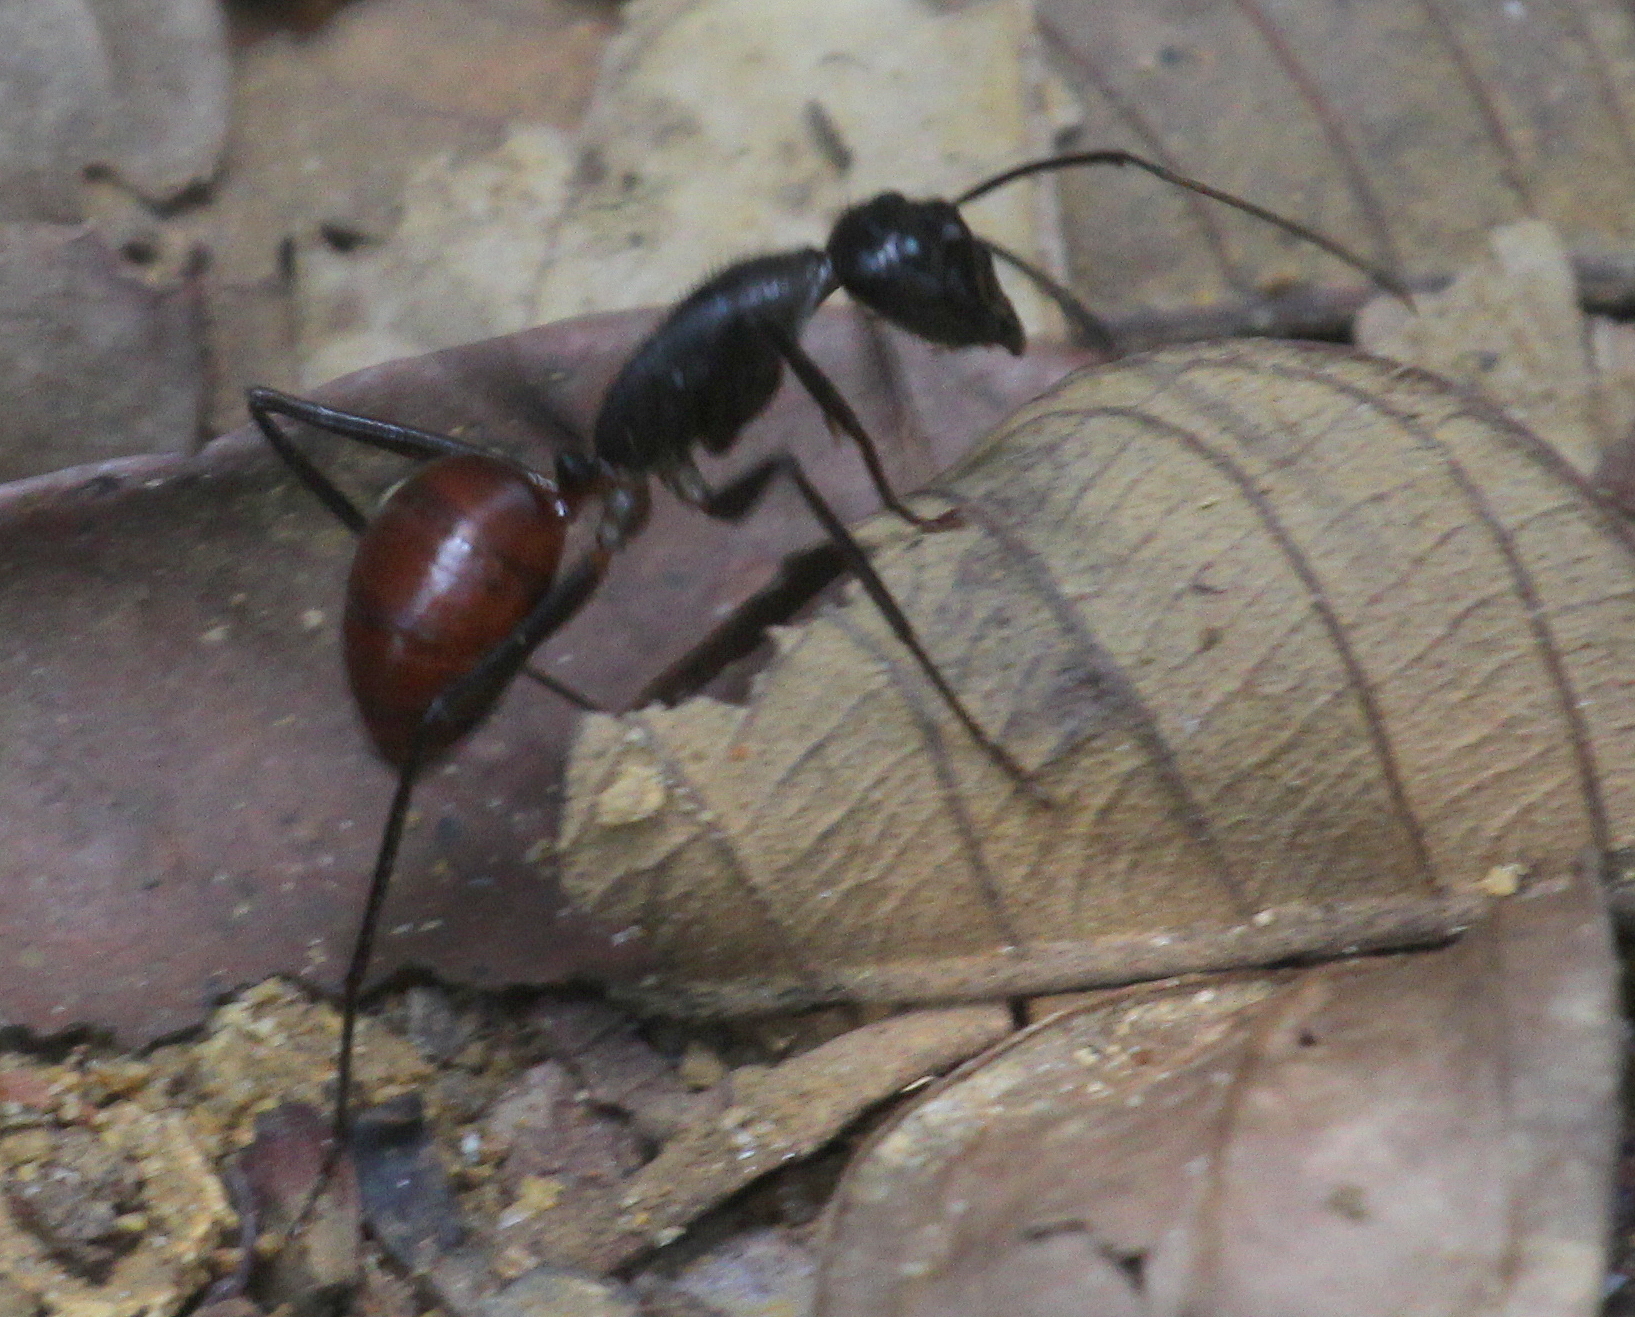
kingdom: Animalia
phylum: Arthropoda
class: Insecta
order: Hymenoptera
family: Formicidae
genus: Dinomyrmex
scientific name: Dinomyrmex
